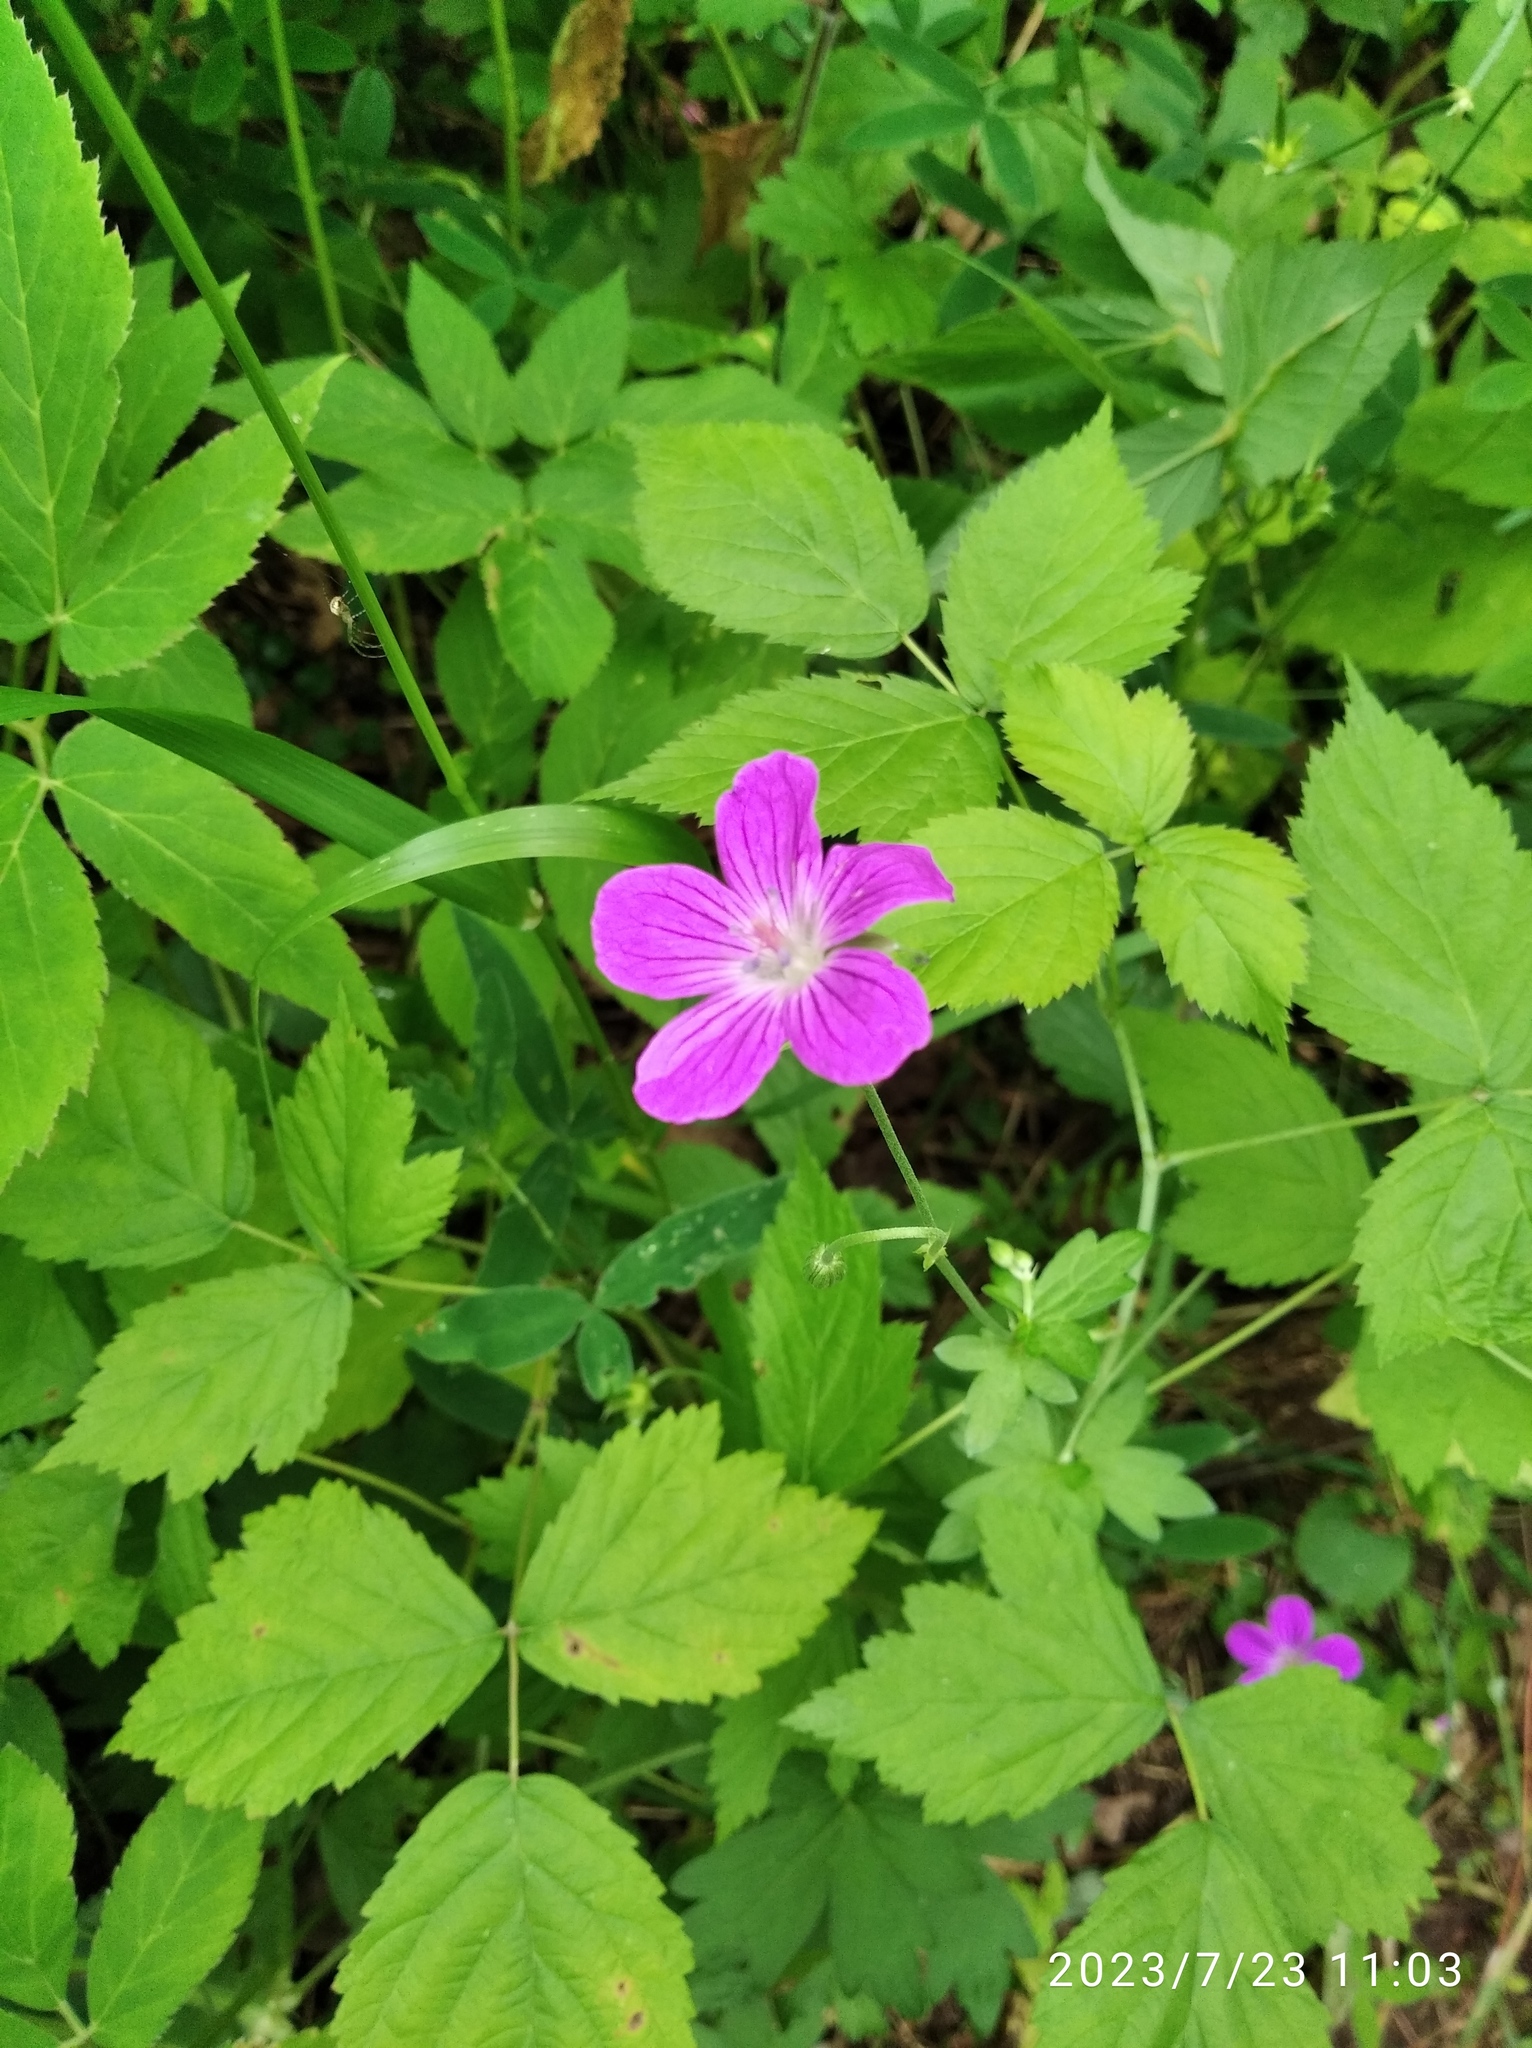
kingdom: Plantae
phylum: Tracheophyta
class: Magnoliopsida
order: Geraniales
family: Geraniaceae
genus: Geranium
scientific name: Geranium palustre
